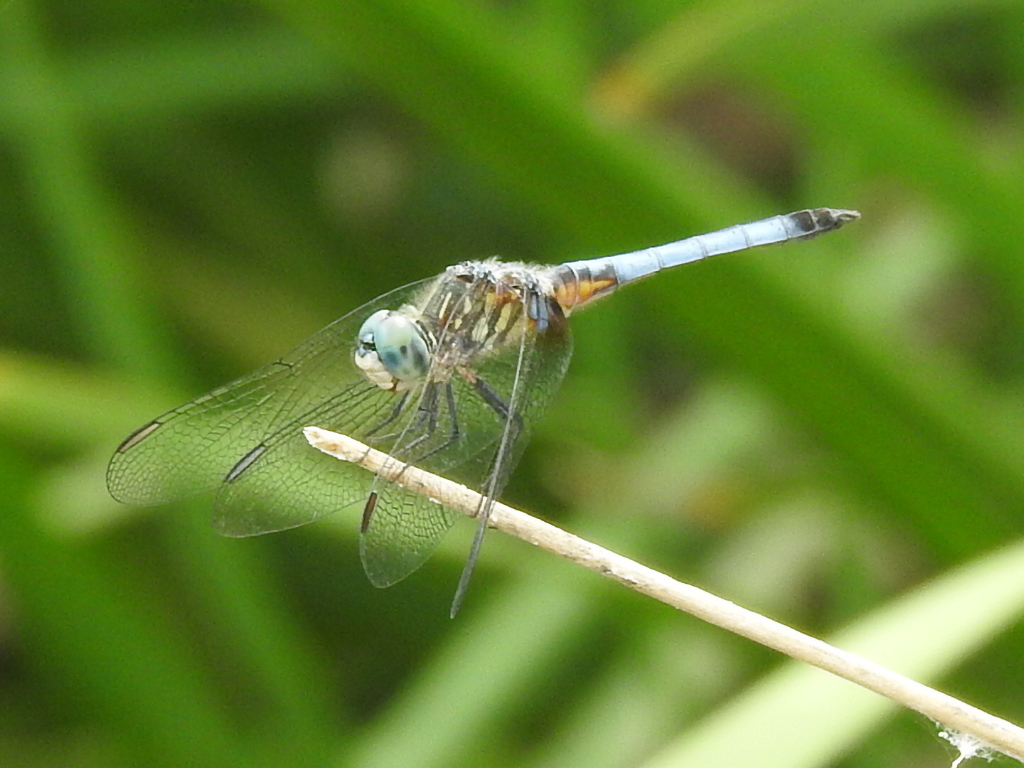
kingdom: Animalia
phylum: Arthropoda
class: Insecta
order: Odonata
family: Libellulidae
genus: Pachydiplax
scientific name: Pachydiplax longipennis
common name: Blue dasher
